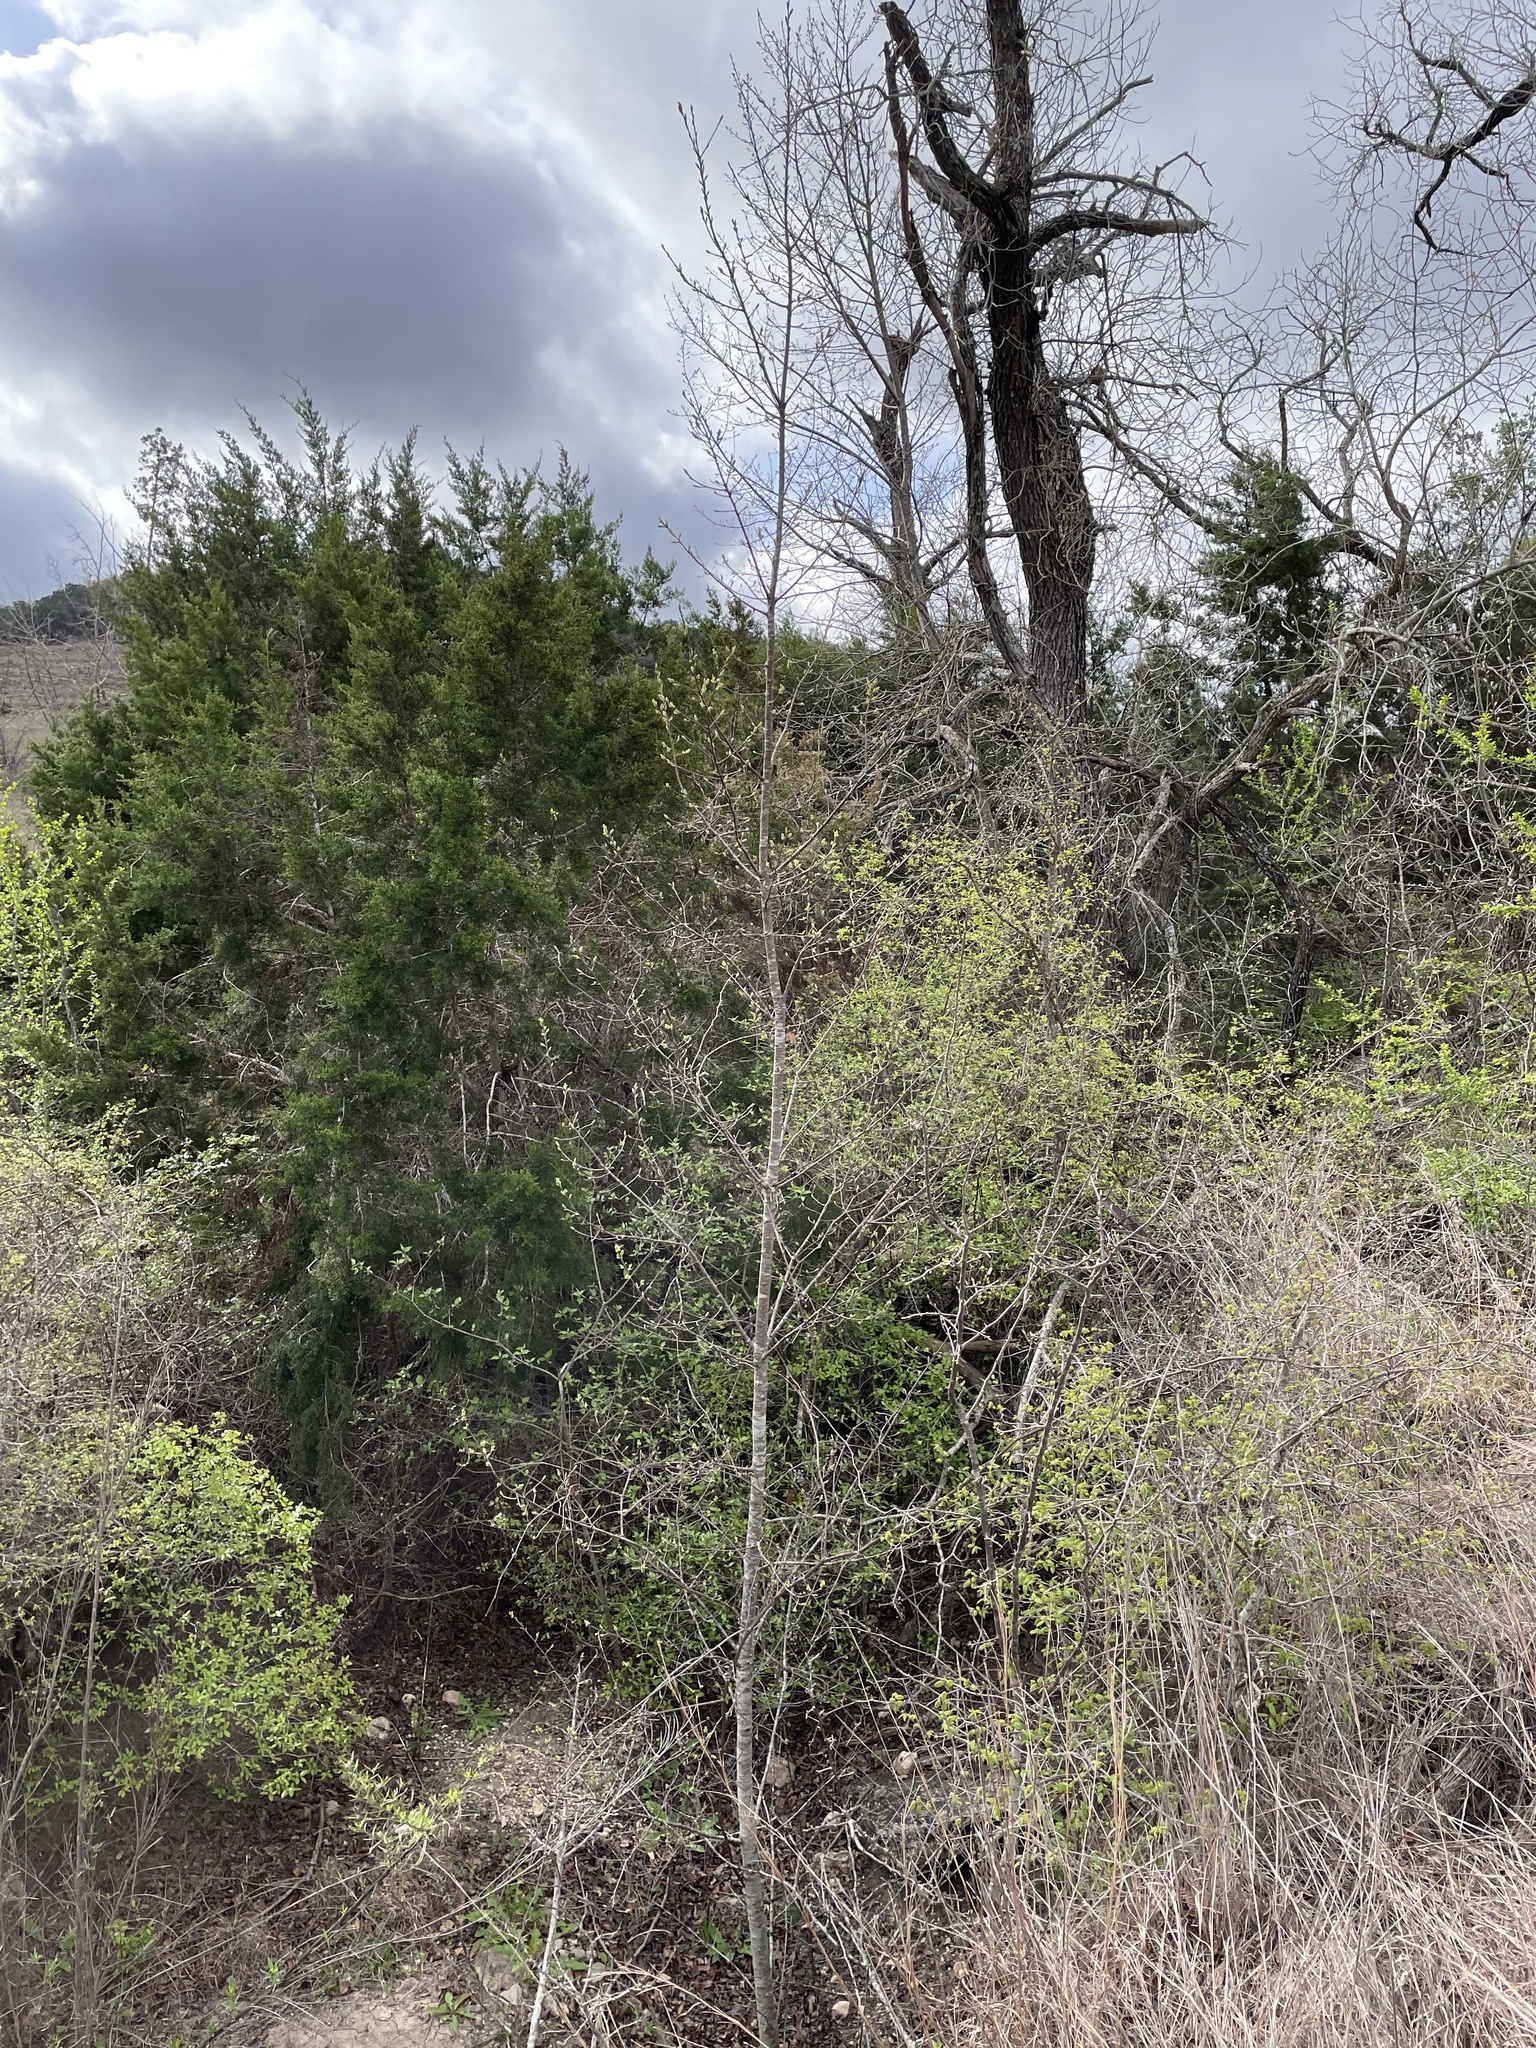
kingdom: Plantae
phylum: Tracheophyta
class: Magnoliopsida
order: Rosales
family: Rosaceae
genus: Prunus
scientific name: Prunus serotina
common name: Black cherry
